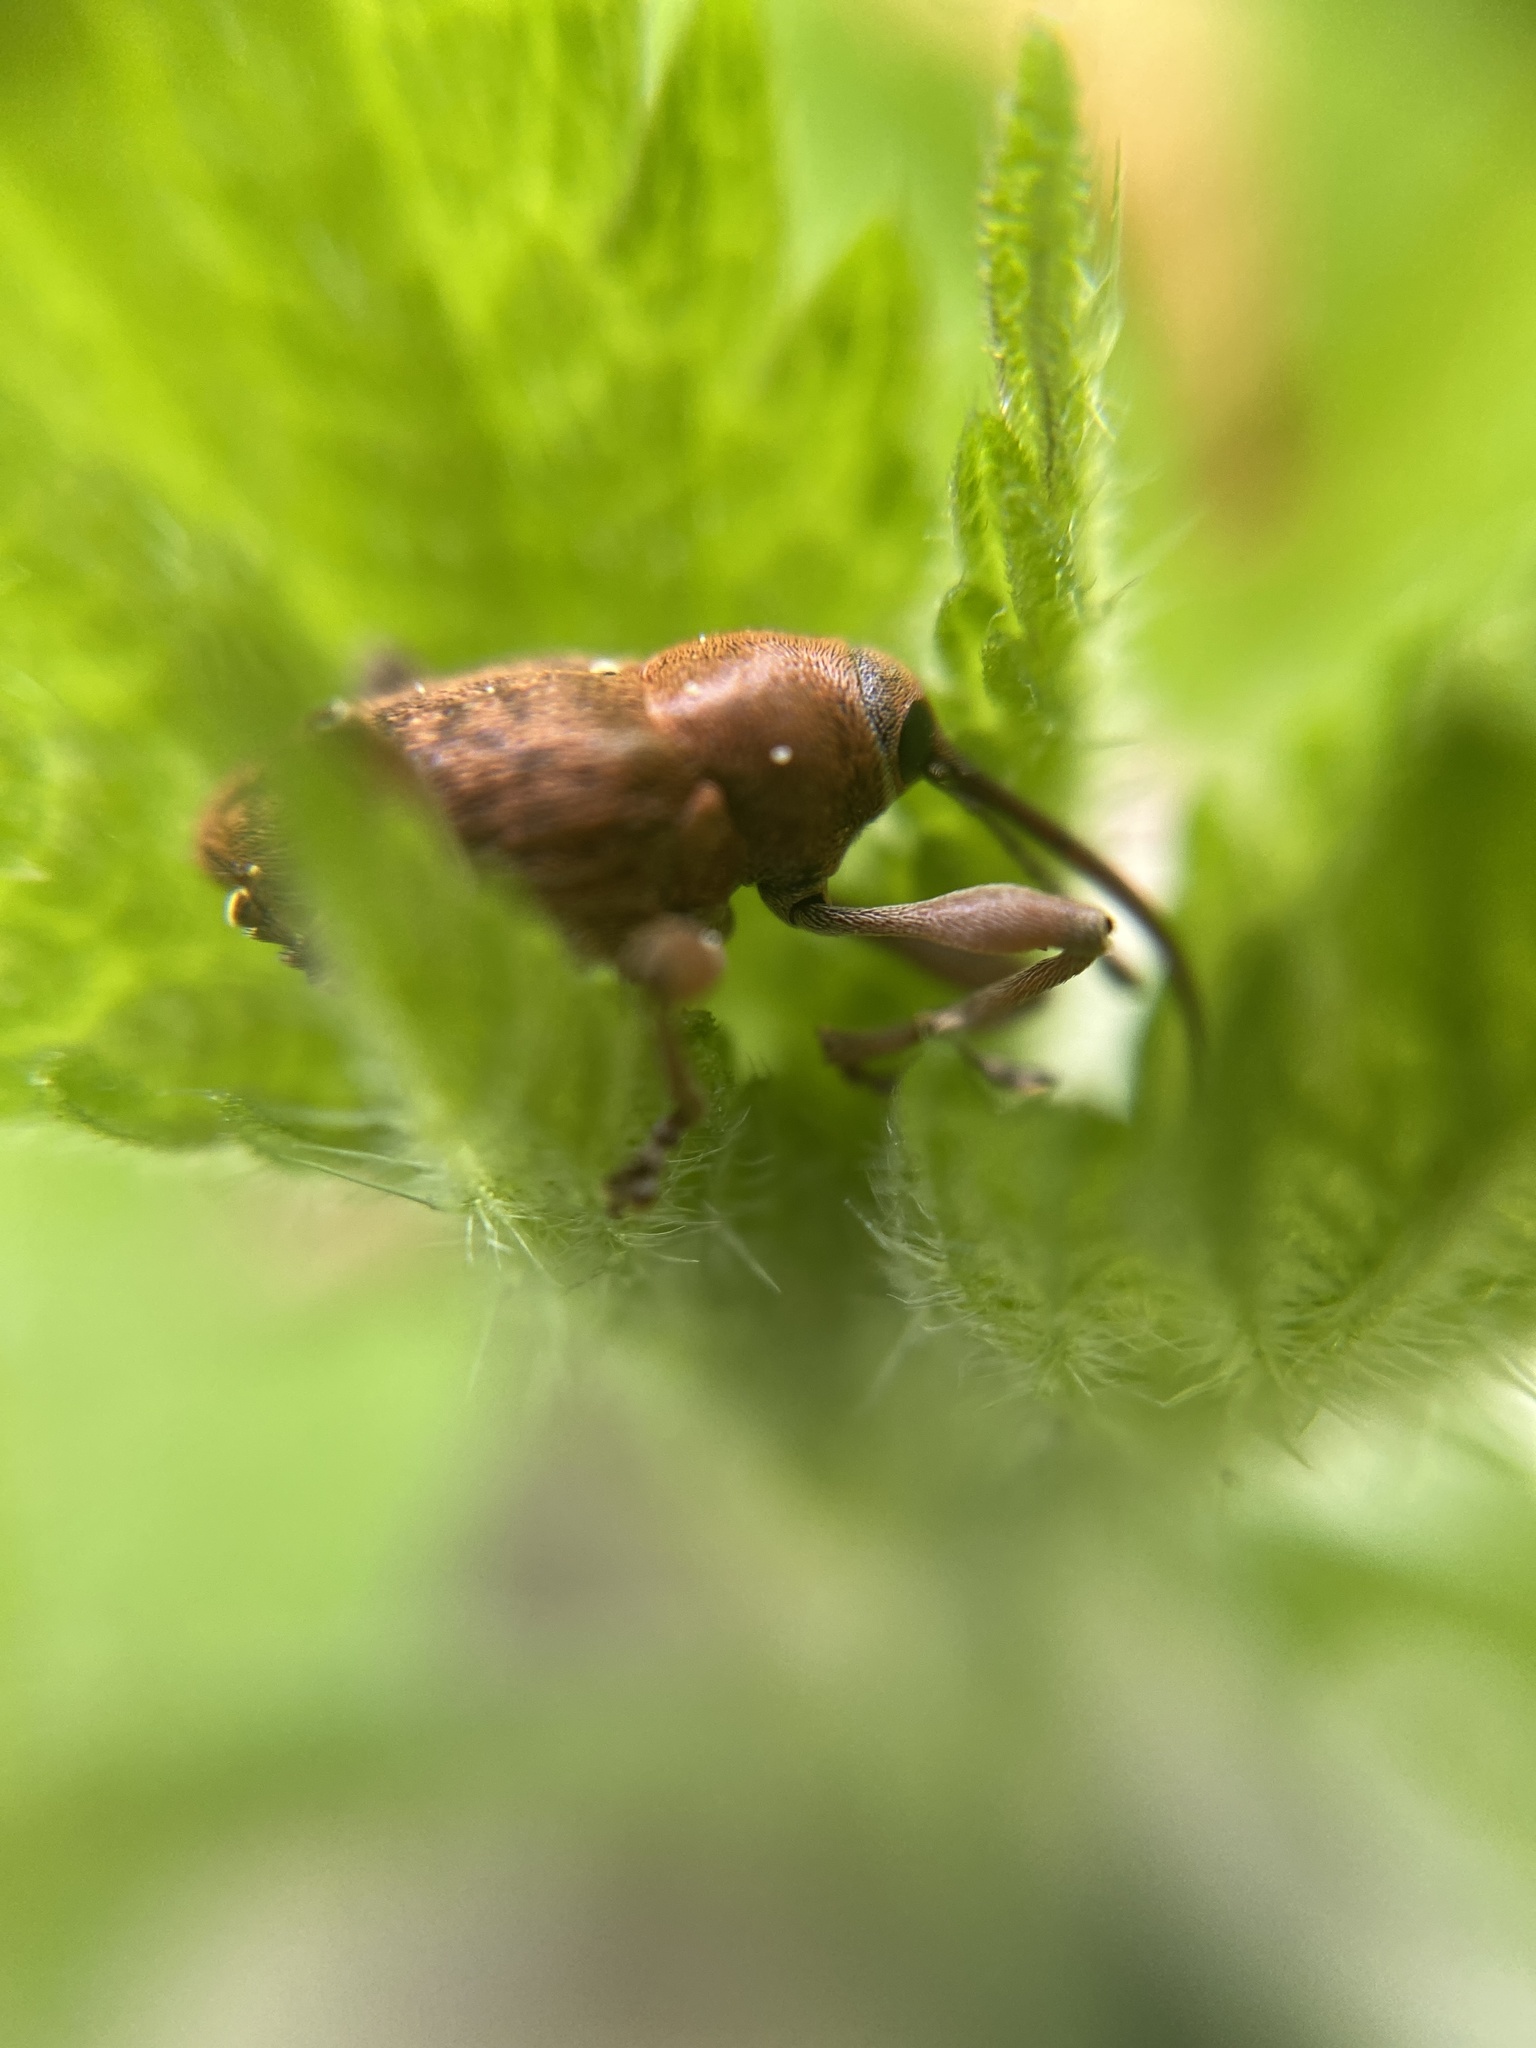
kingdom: Animalia
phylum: Arthropoda
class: Insecta
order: Coleoptera
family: Curculionidae
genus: Curculio
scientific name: Curculio glandium
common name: Acorn weevil
